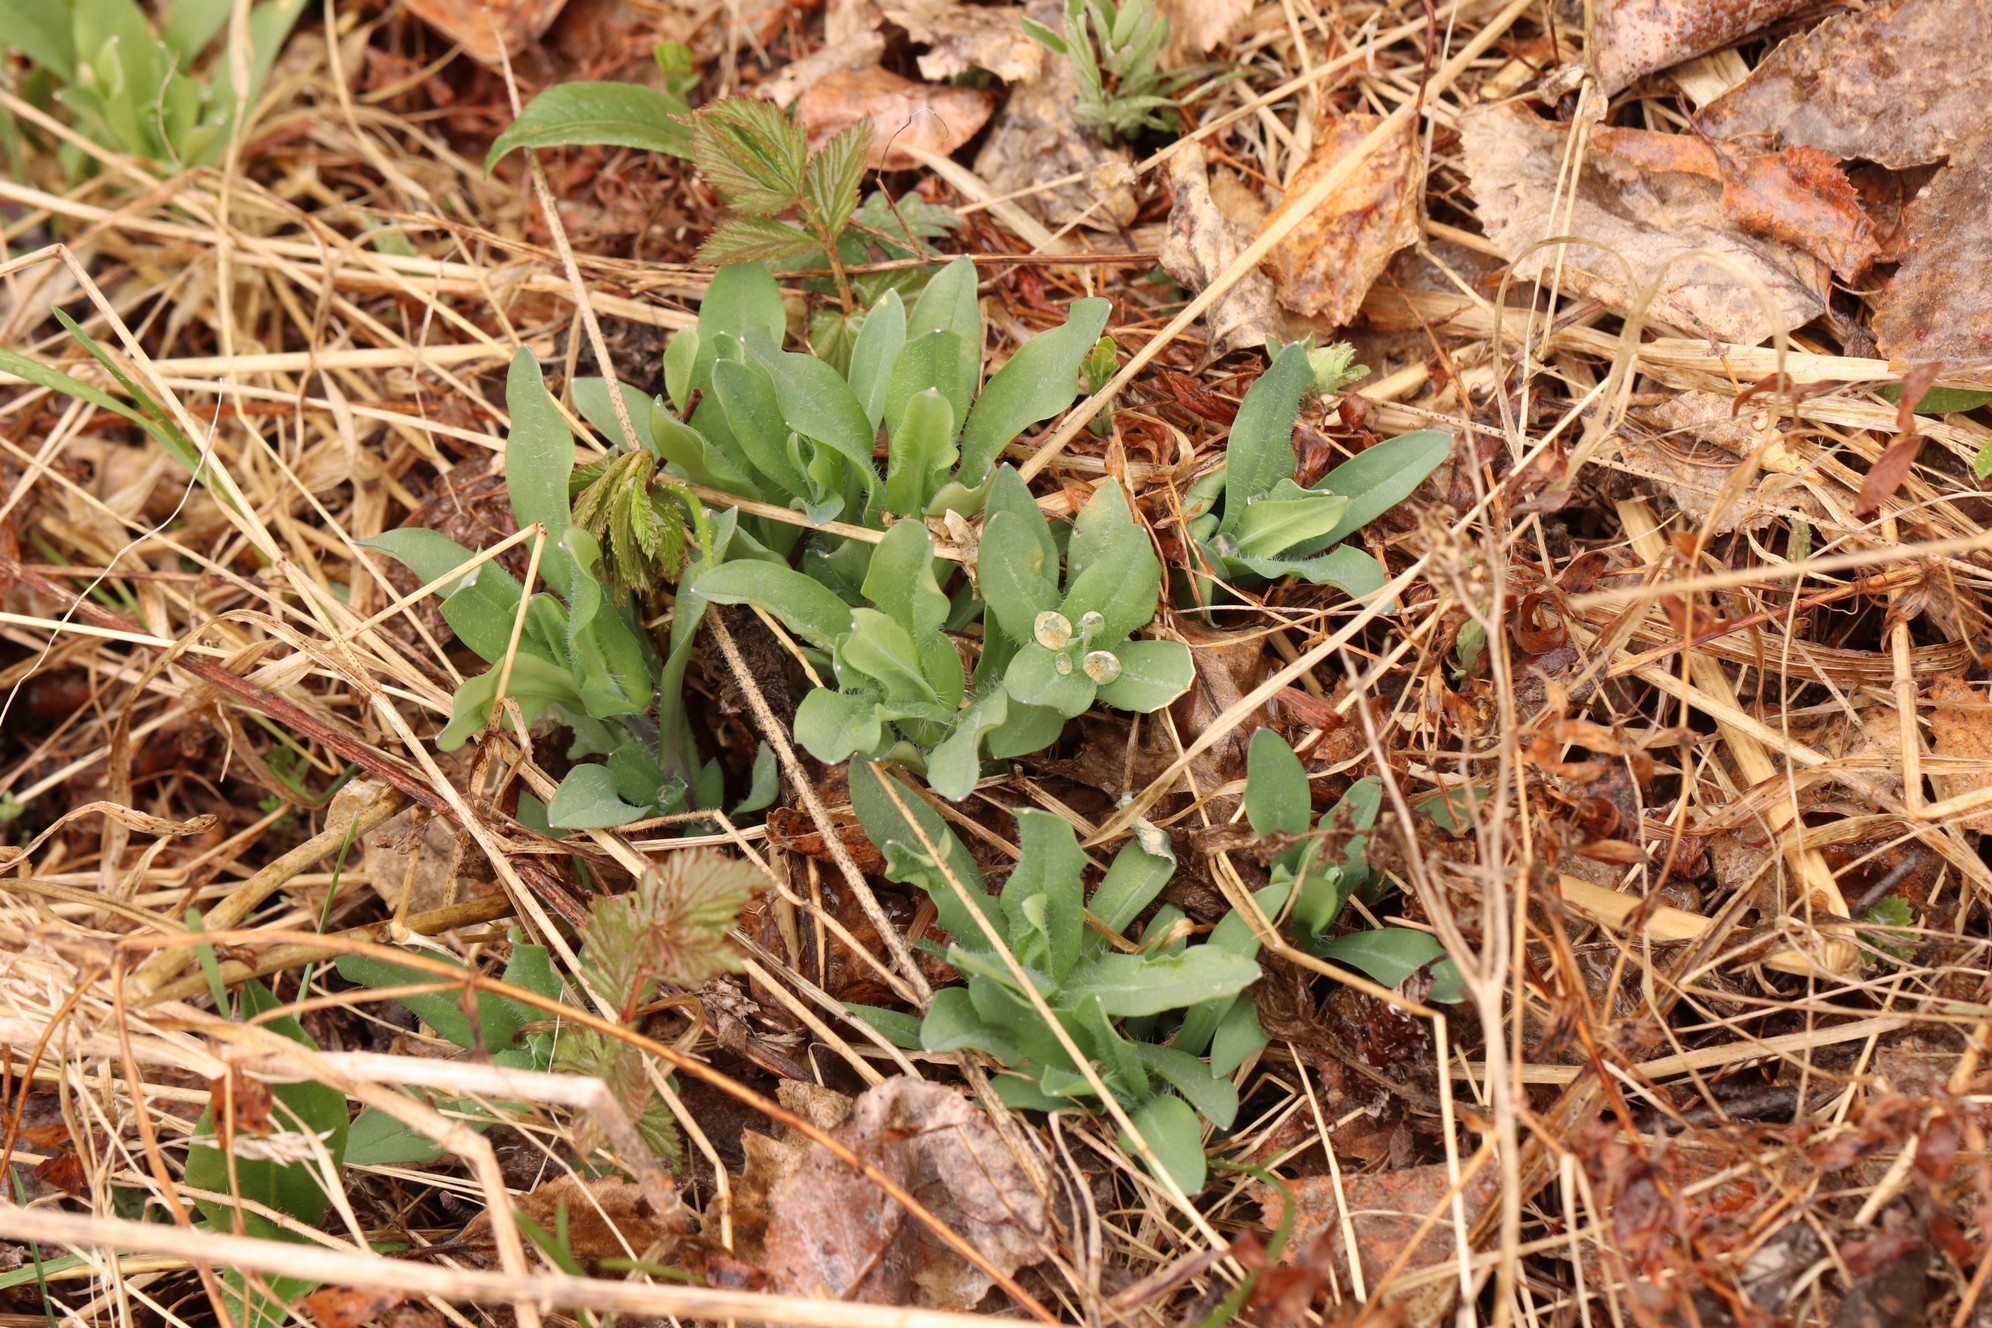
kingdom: Plantae
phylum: Tracheophyta
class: Magnoliopsida
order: Caryophyllales
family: Caryophyllaceae
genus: Silene
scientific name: Silene vulgaris
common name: Bladder campion
